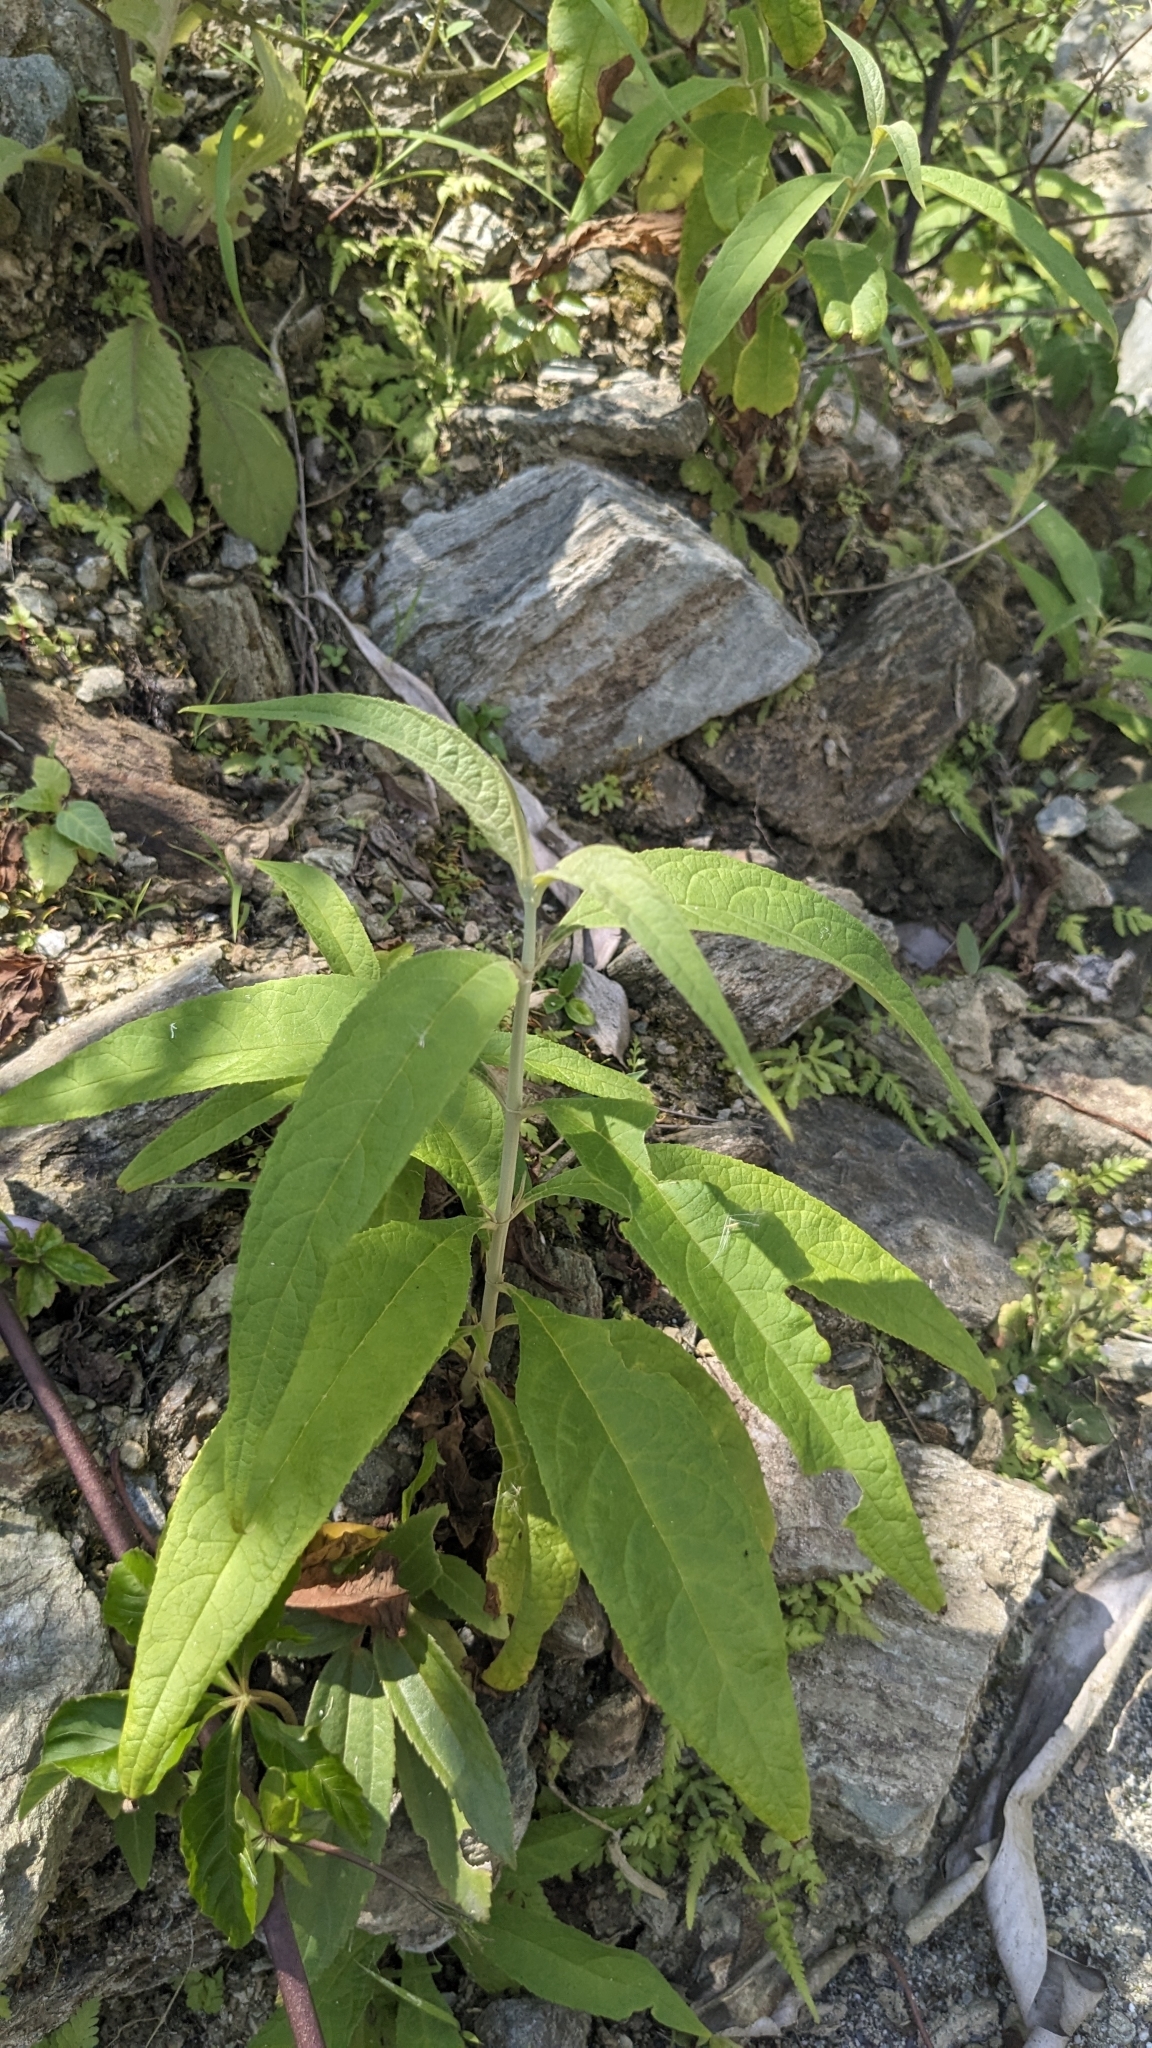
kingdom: Plantae
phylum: Tracheophyta
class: Magnoliopsida
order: Lamiales
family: Scrophulariaceae
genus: Buddleja
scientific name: Buddleja asiatica
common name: Dog tail
